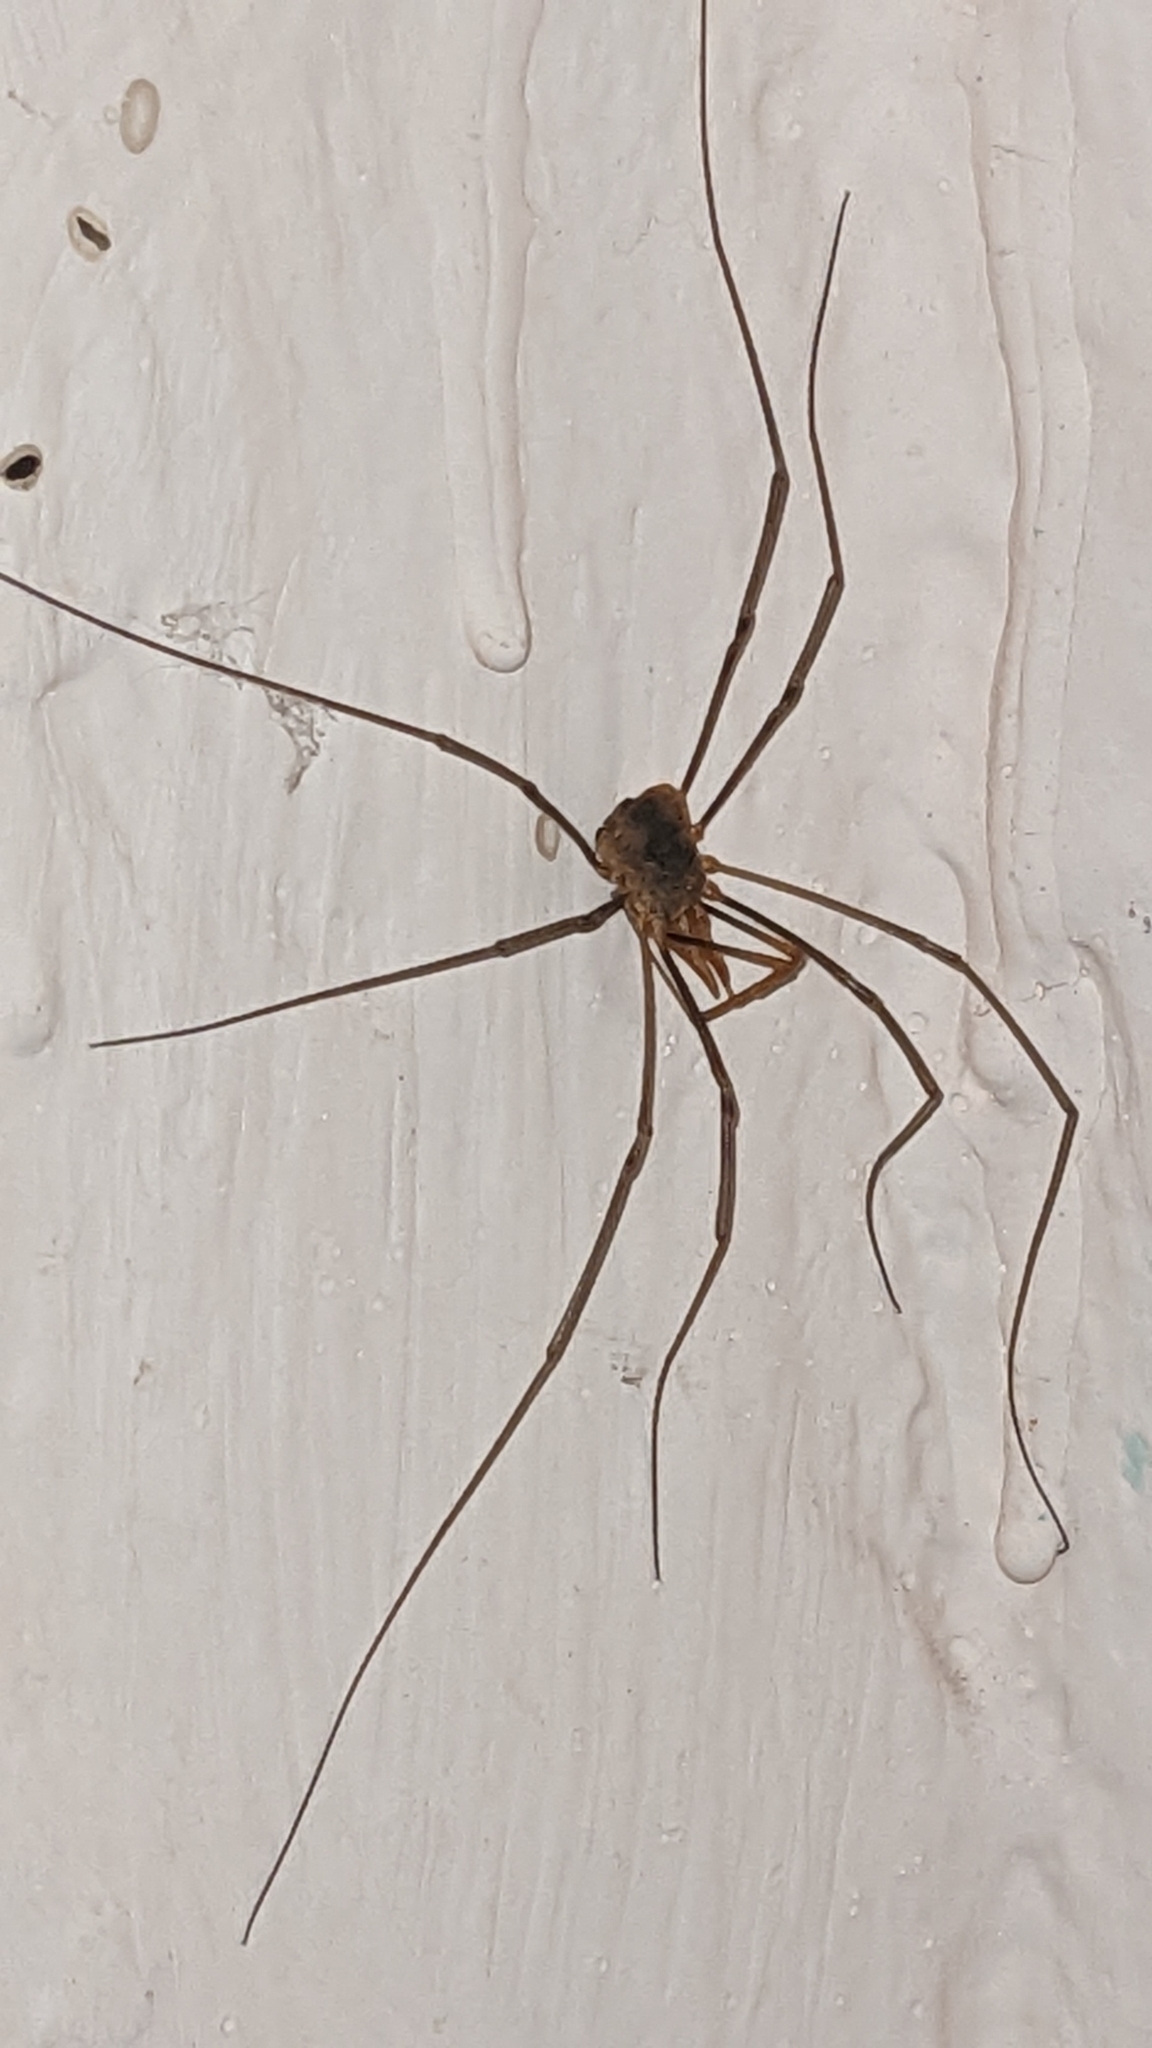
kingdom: Animalia
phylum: Arthropoda
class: Arachnida
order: Opiliones
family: Phalangiidae
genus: Phalangium
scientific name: Phalangium opilio
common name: Daddy longleg
